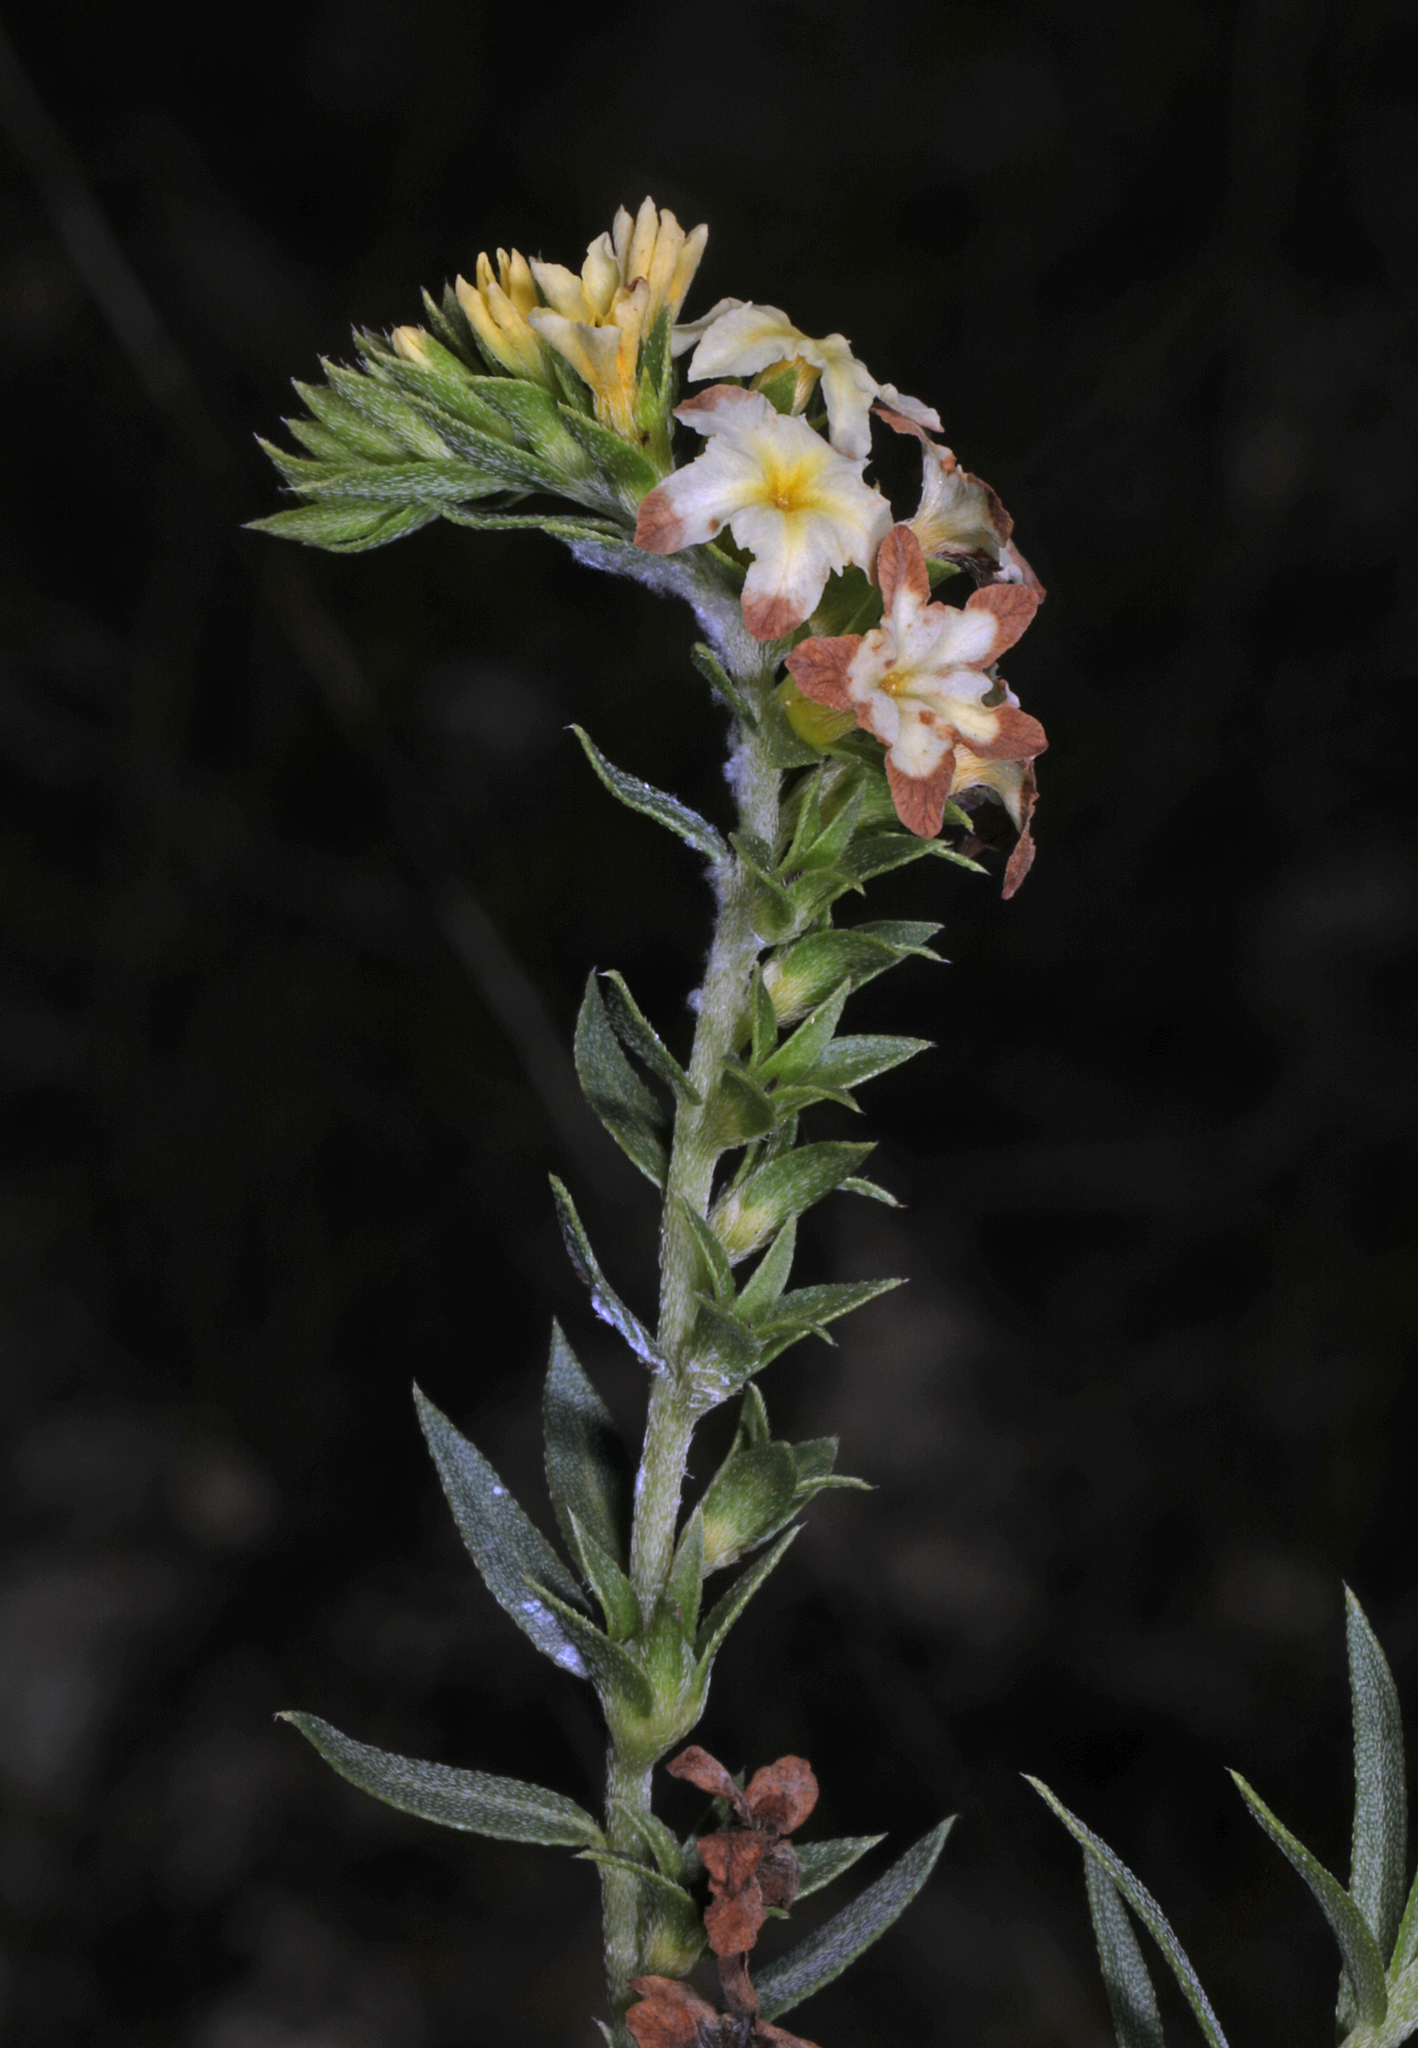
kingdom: Plantae
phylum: Tracheophyta
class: Magnoliopsida
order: Boraginales
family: Heliotropiaceae
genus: Euploca
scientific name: Euploca polyphylla
